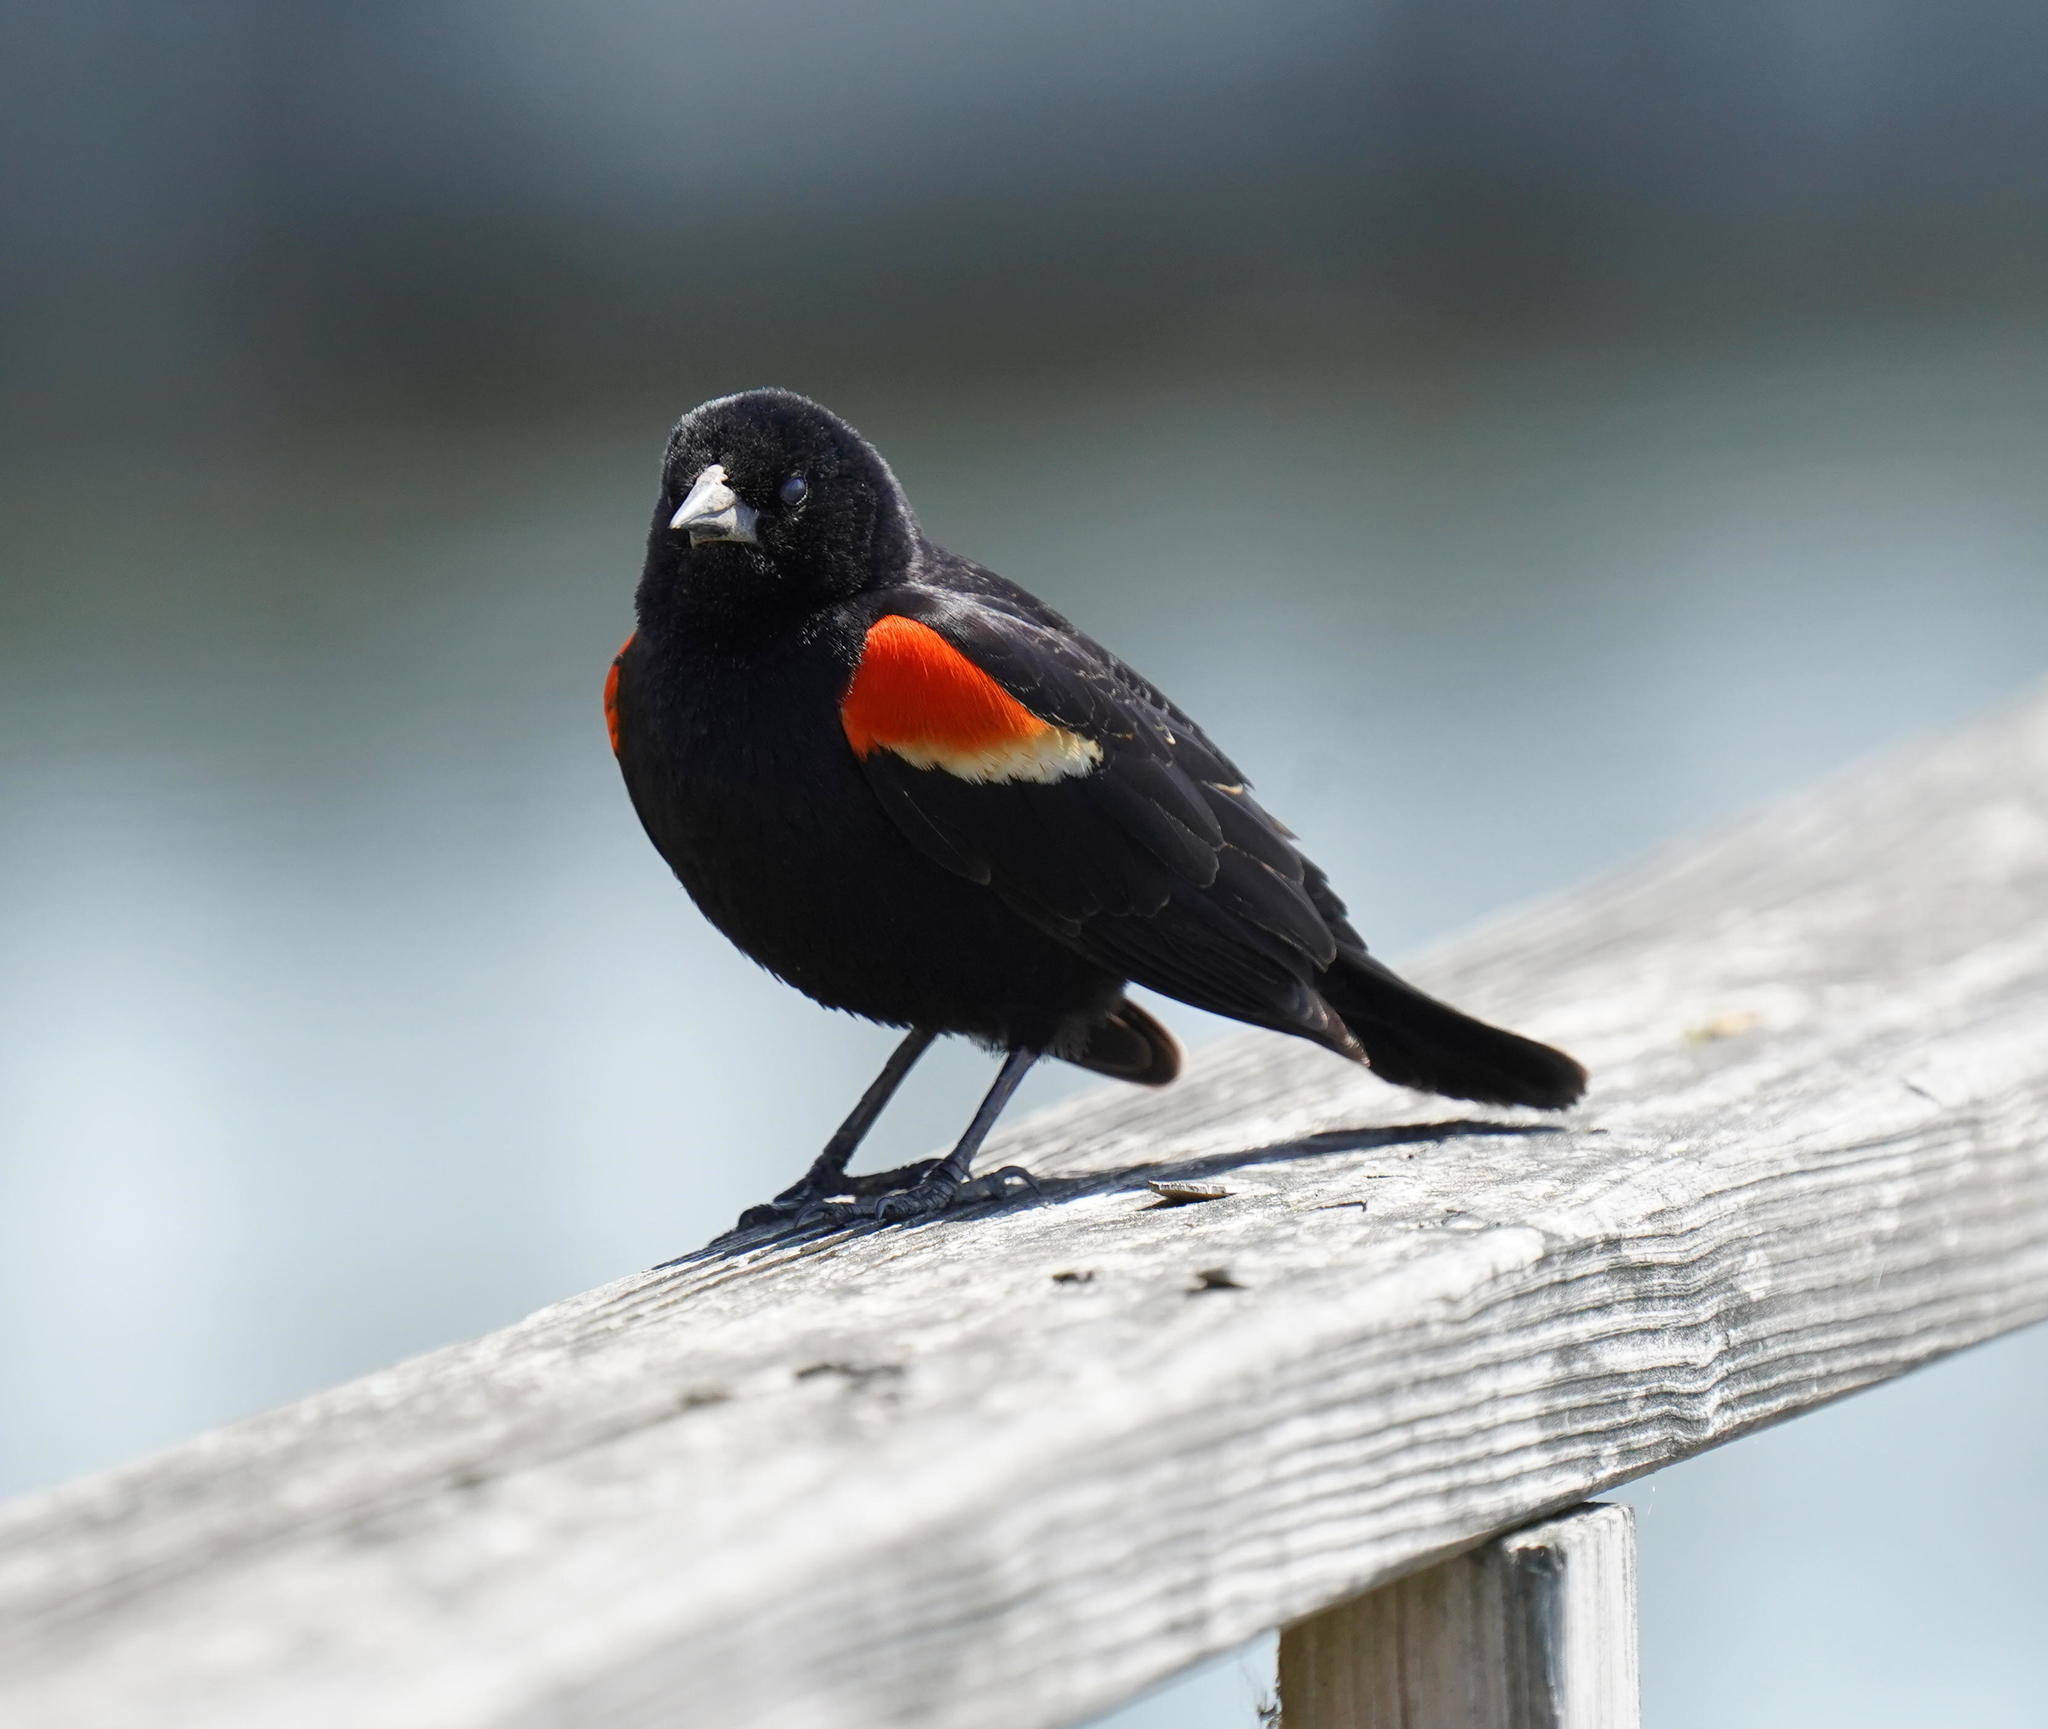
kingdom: Animalia
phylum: Chordata
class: Aves
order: Passeriformes
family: Icteridae
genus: Agelaius
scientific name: Agelaius phoeniceus
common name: Red-winged blackbird
